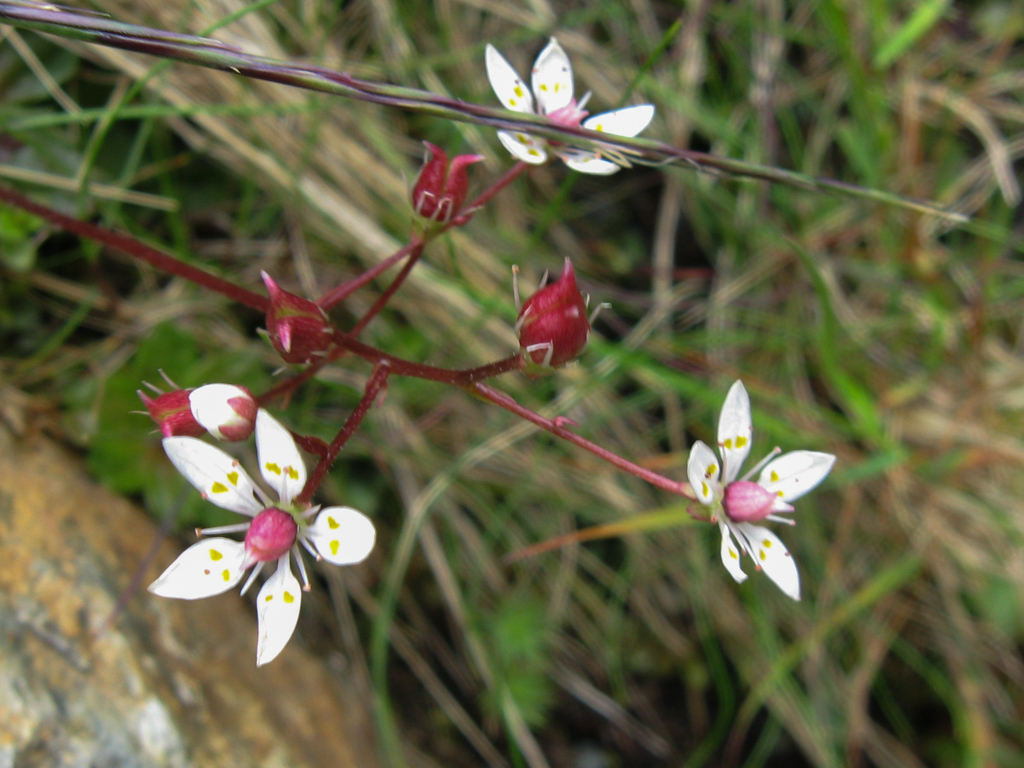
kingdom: Plantae
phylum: Tracheophyta
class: Magnoliopsida
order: Saxifragales
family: Saxifragaceae
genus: Micranthes
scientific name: Micranthes stellaris
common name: Starry saxifrage
